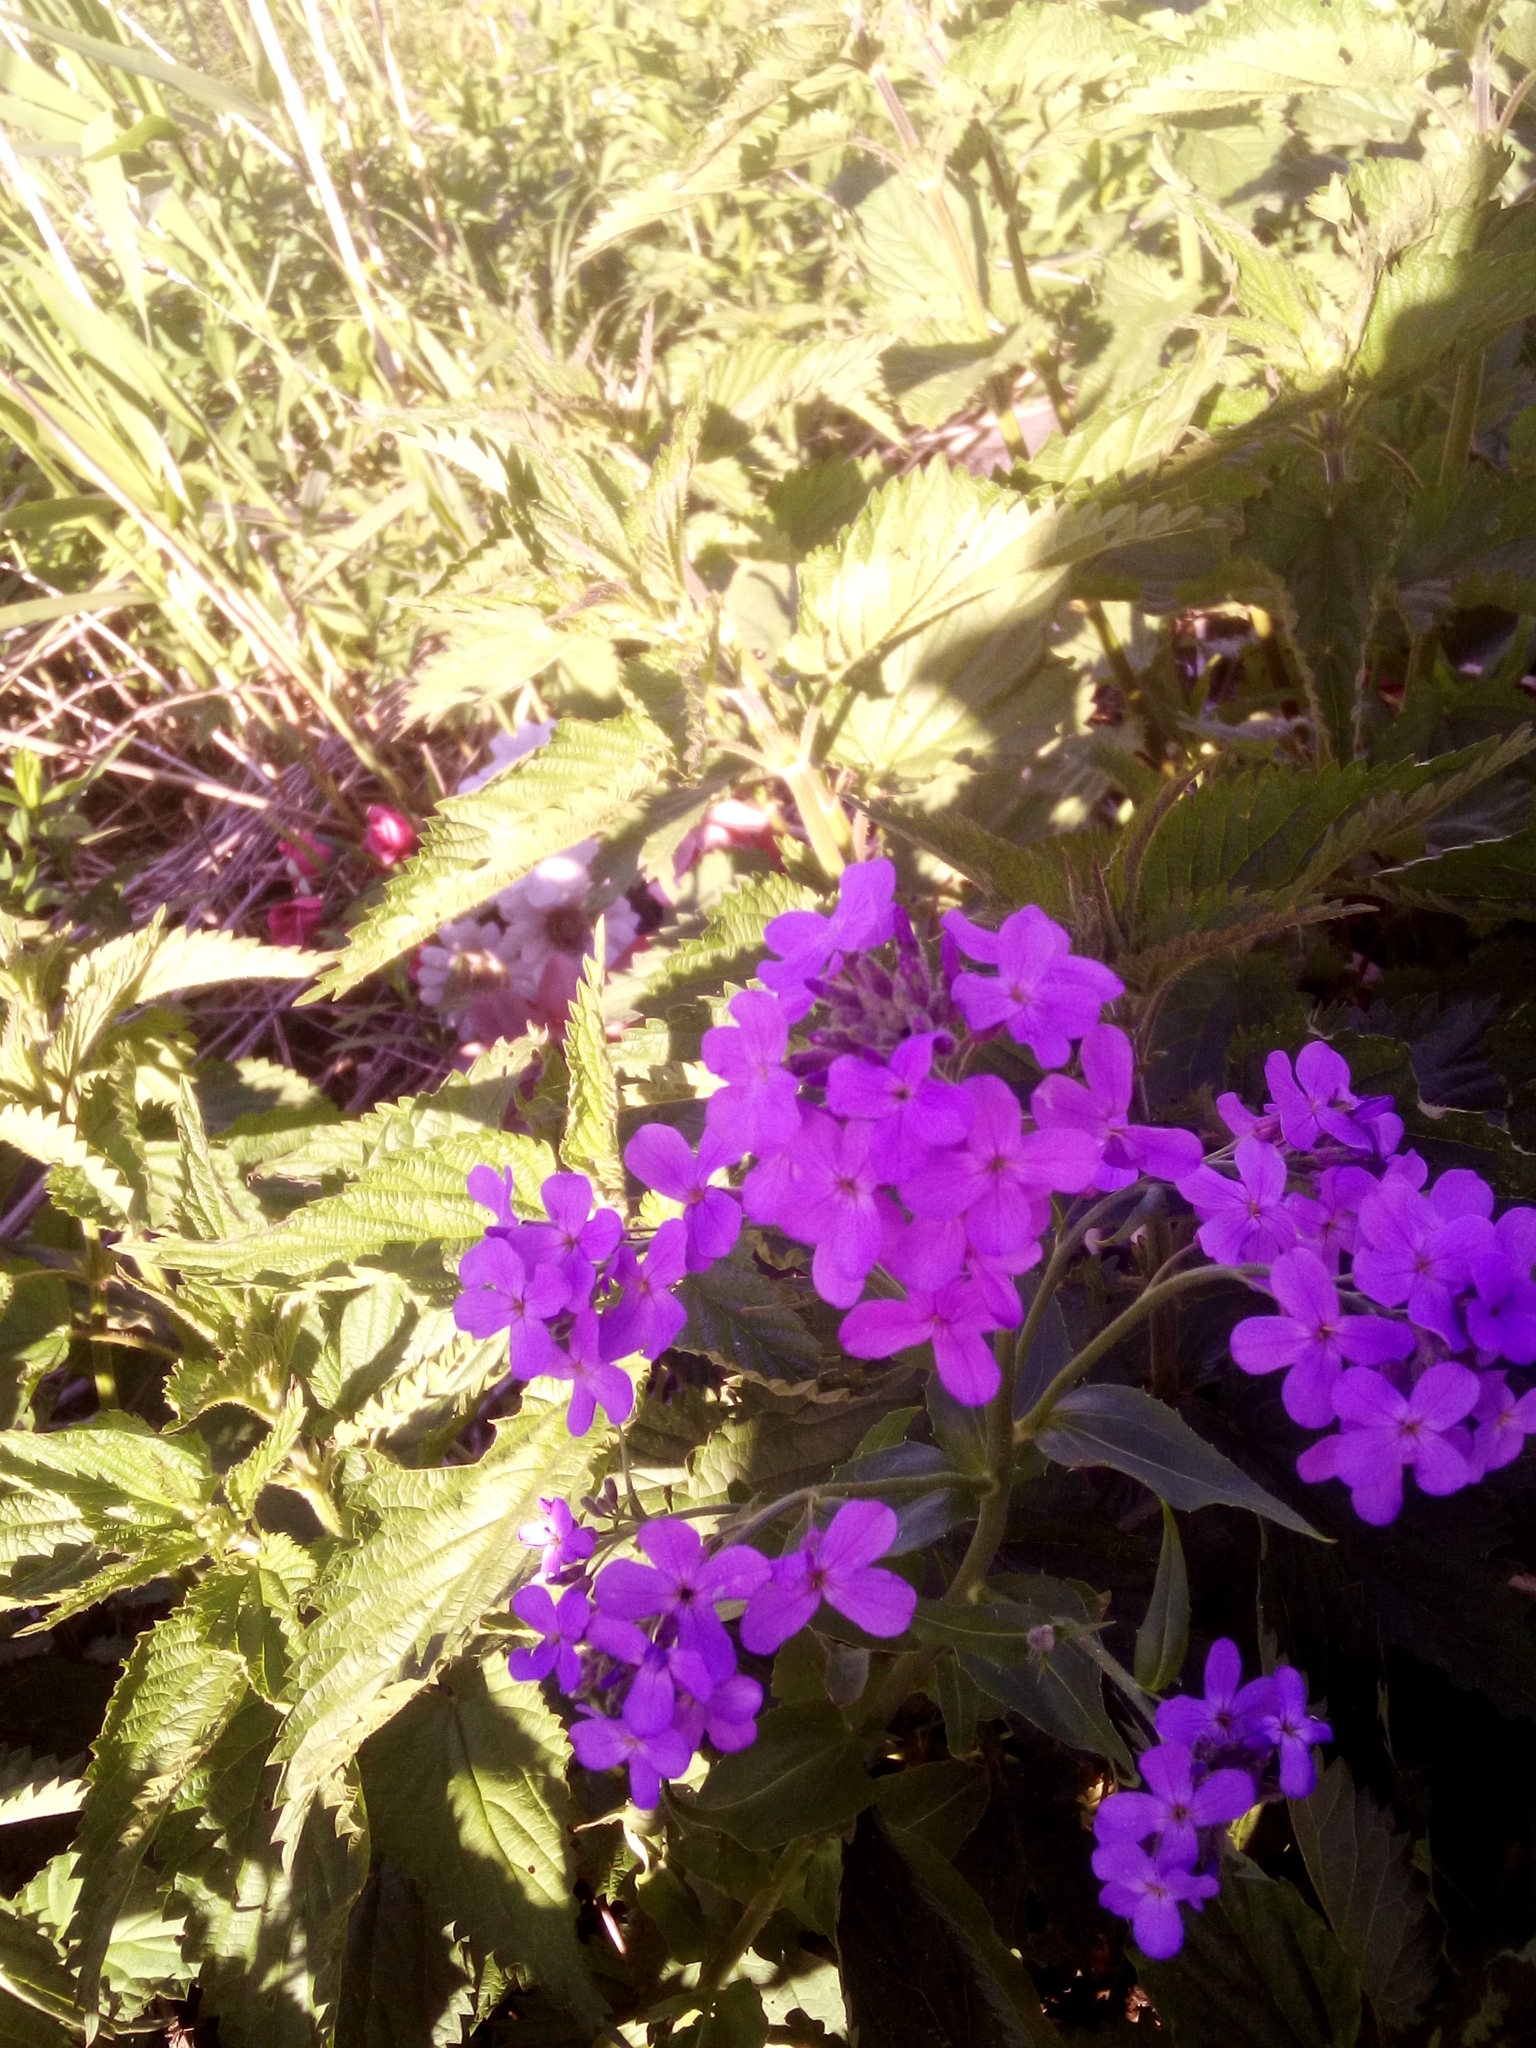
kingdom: Plantae
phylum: Tracheophyta
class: Magnoliopsida
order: Brassicales
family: Brassicaceae
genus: Hesperis
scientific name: Hesperis matronalis
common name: Dame's-violet
